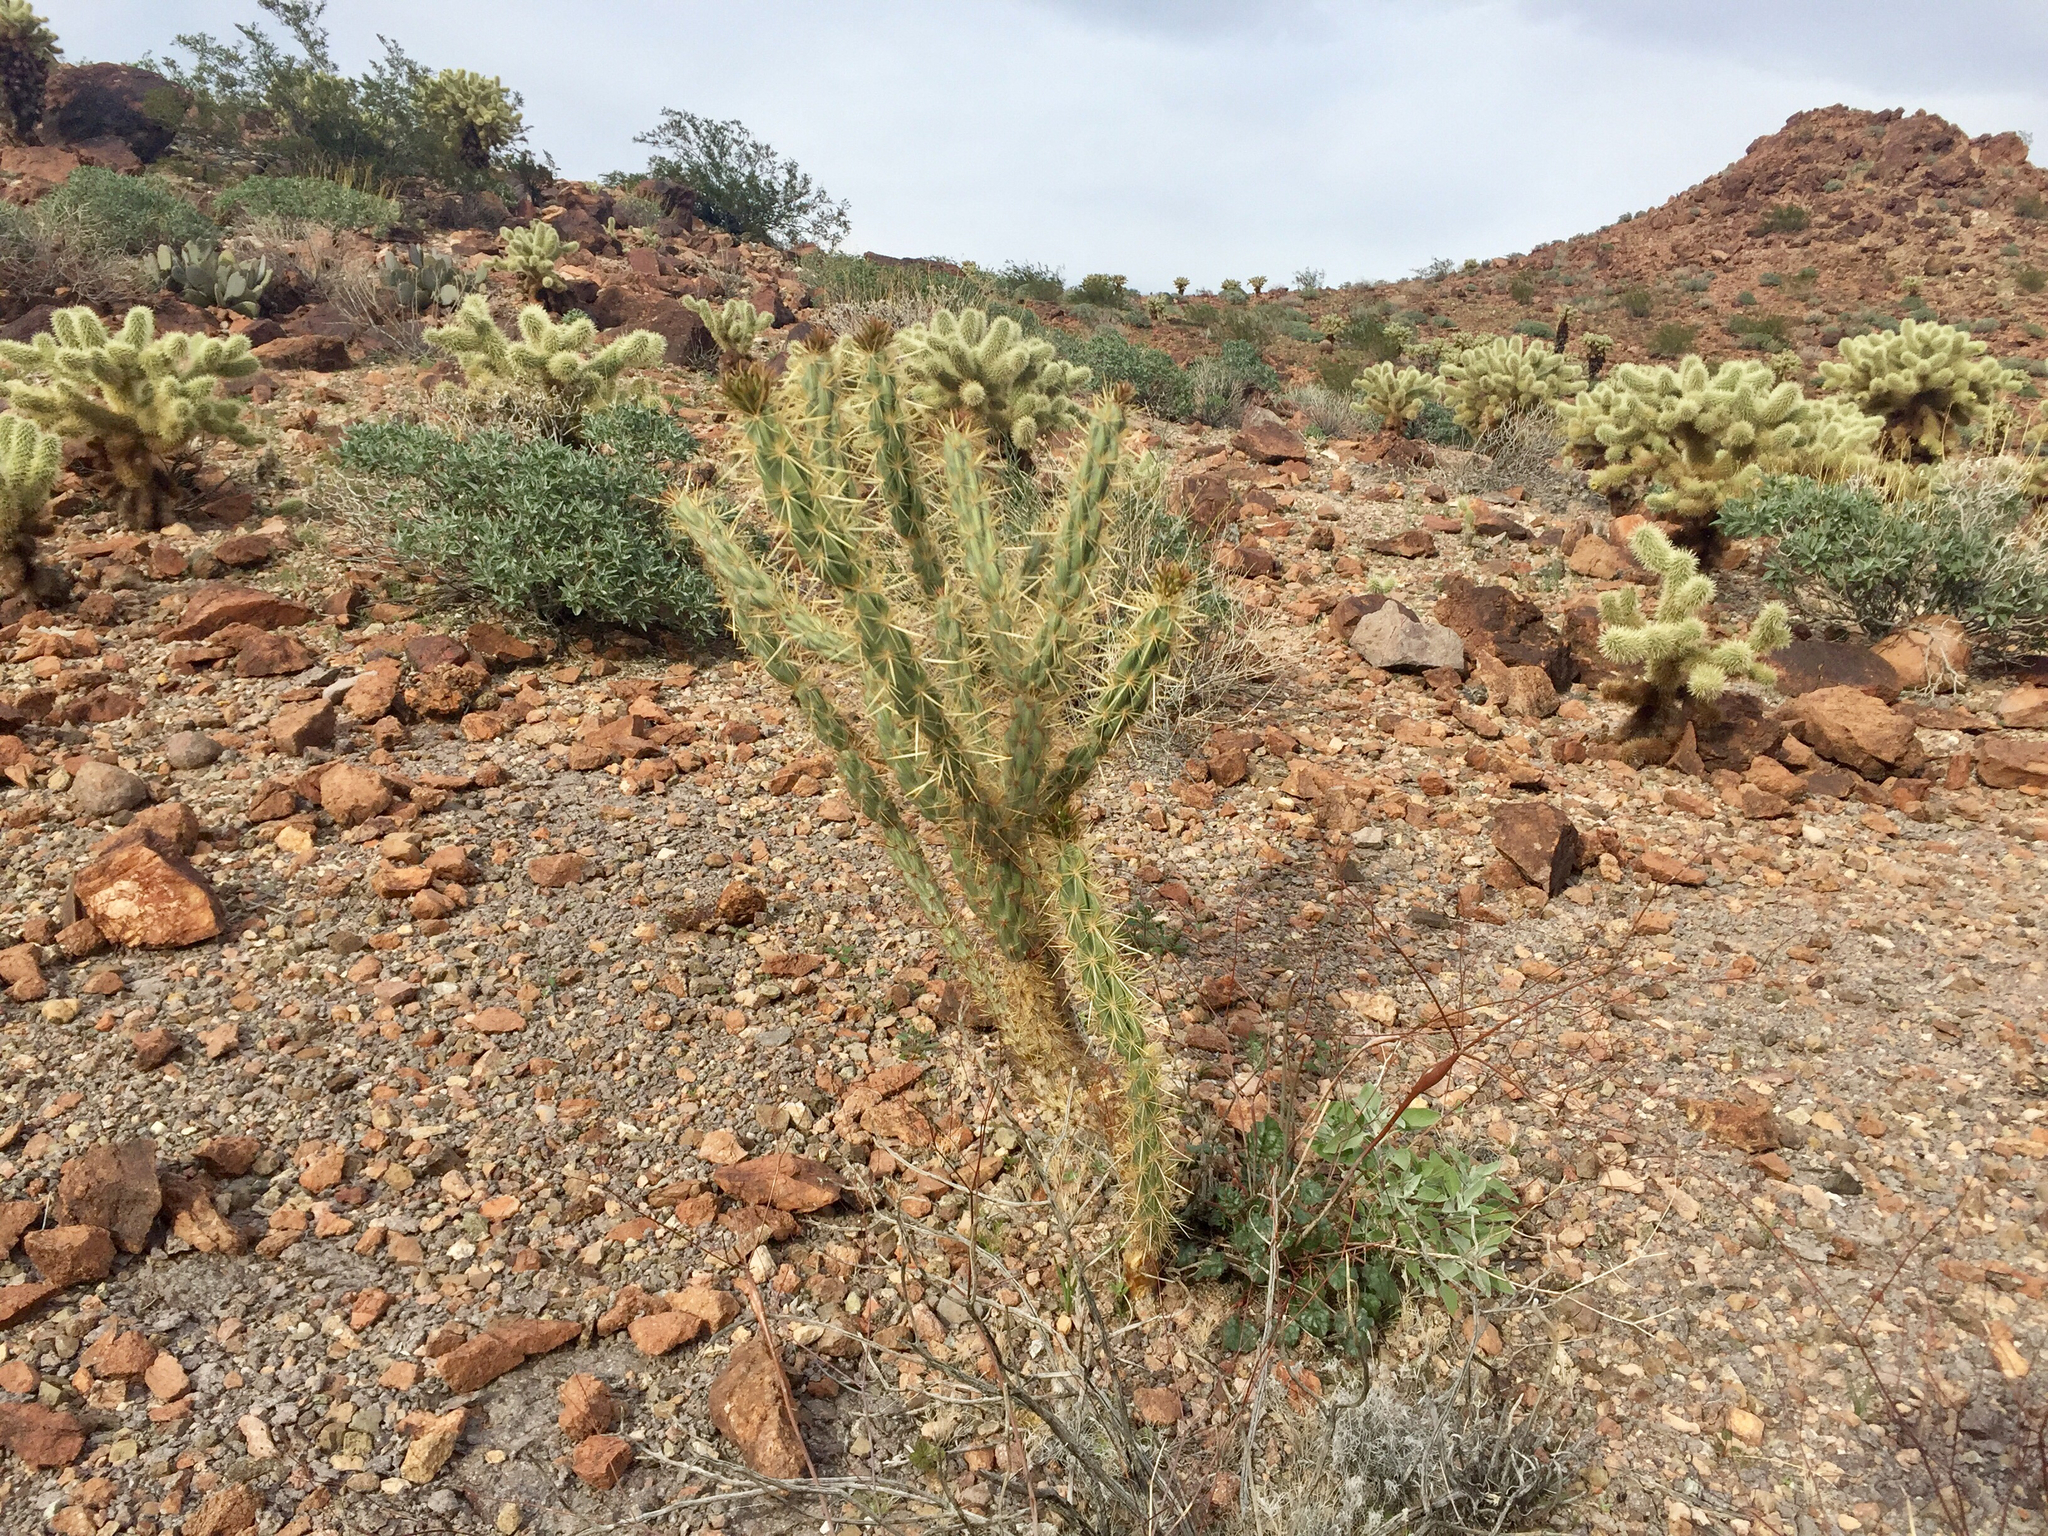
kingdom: Plantae
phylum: Tracheophyta
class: Magnoliopsida
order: Caryophyllales
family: Cactaceae
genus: Cylindropuntia
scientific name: Cylindropuntia acanthocarpa
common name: Buckhorn cholla
